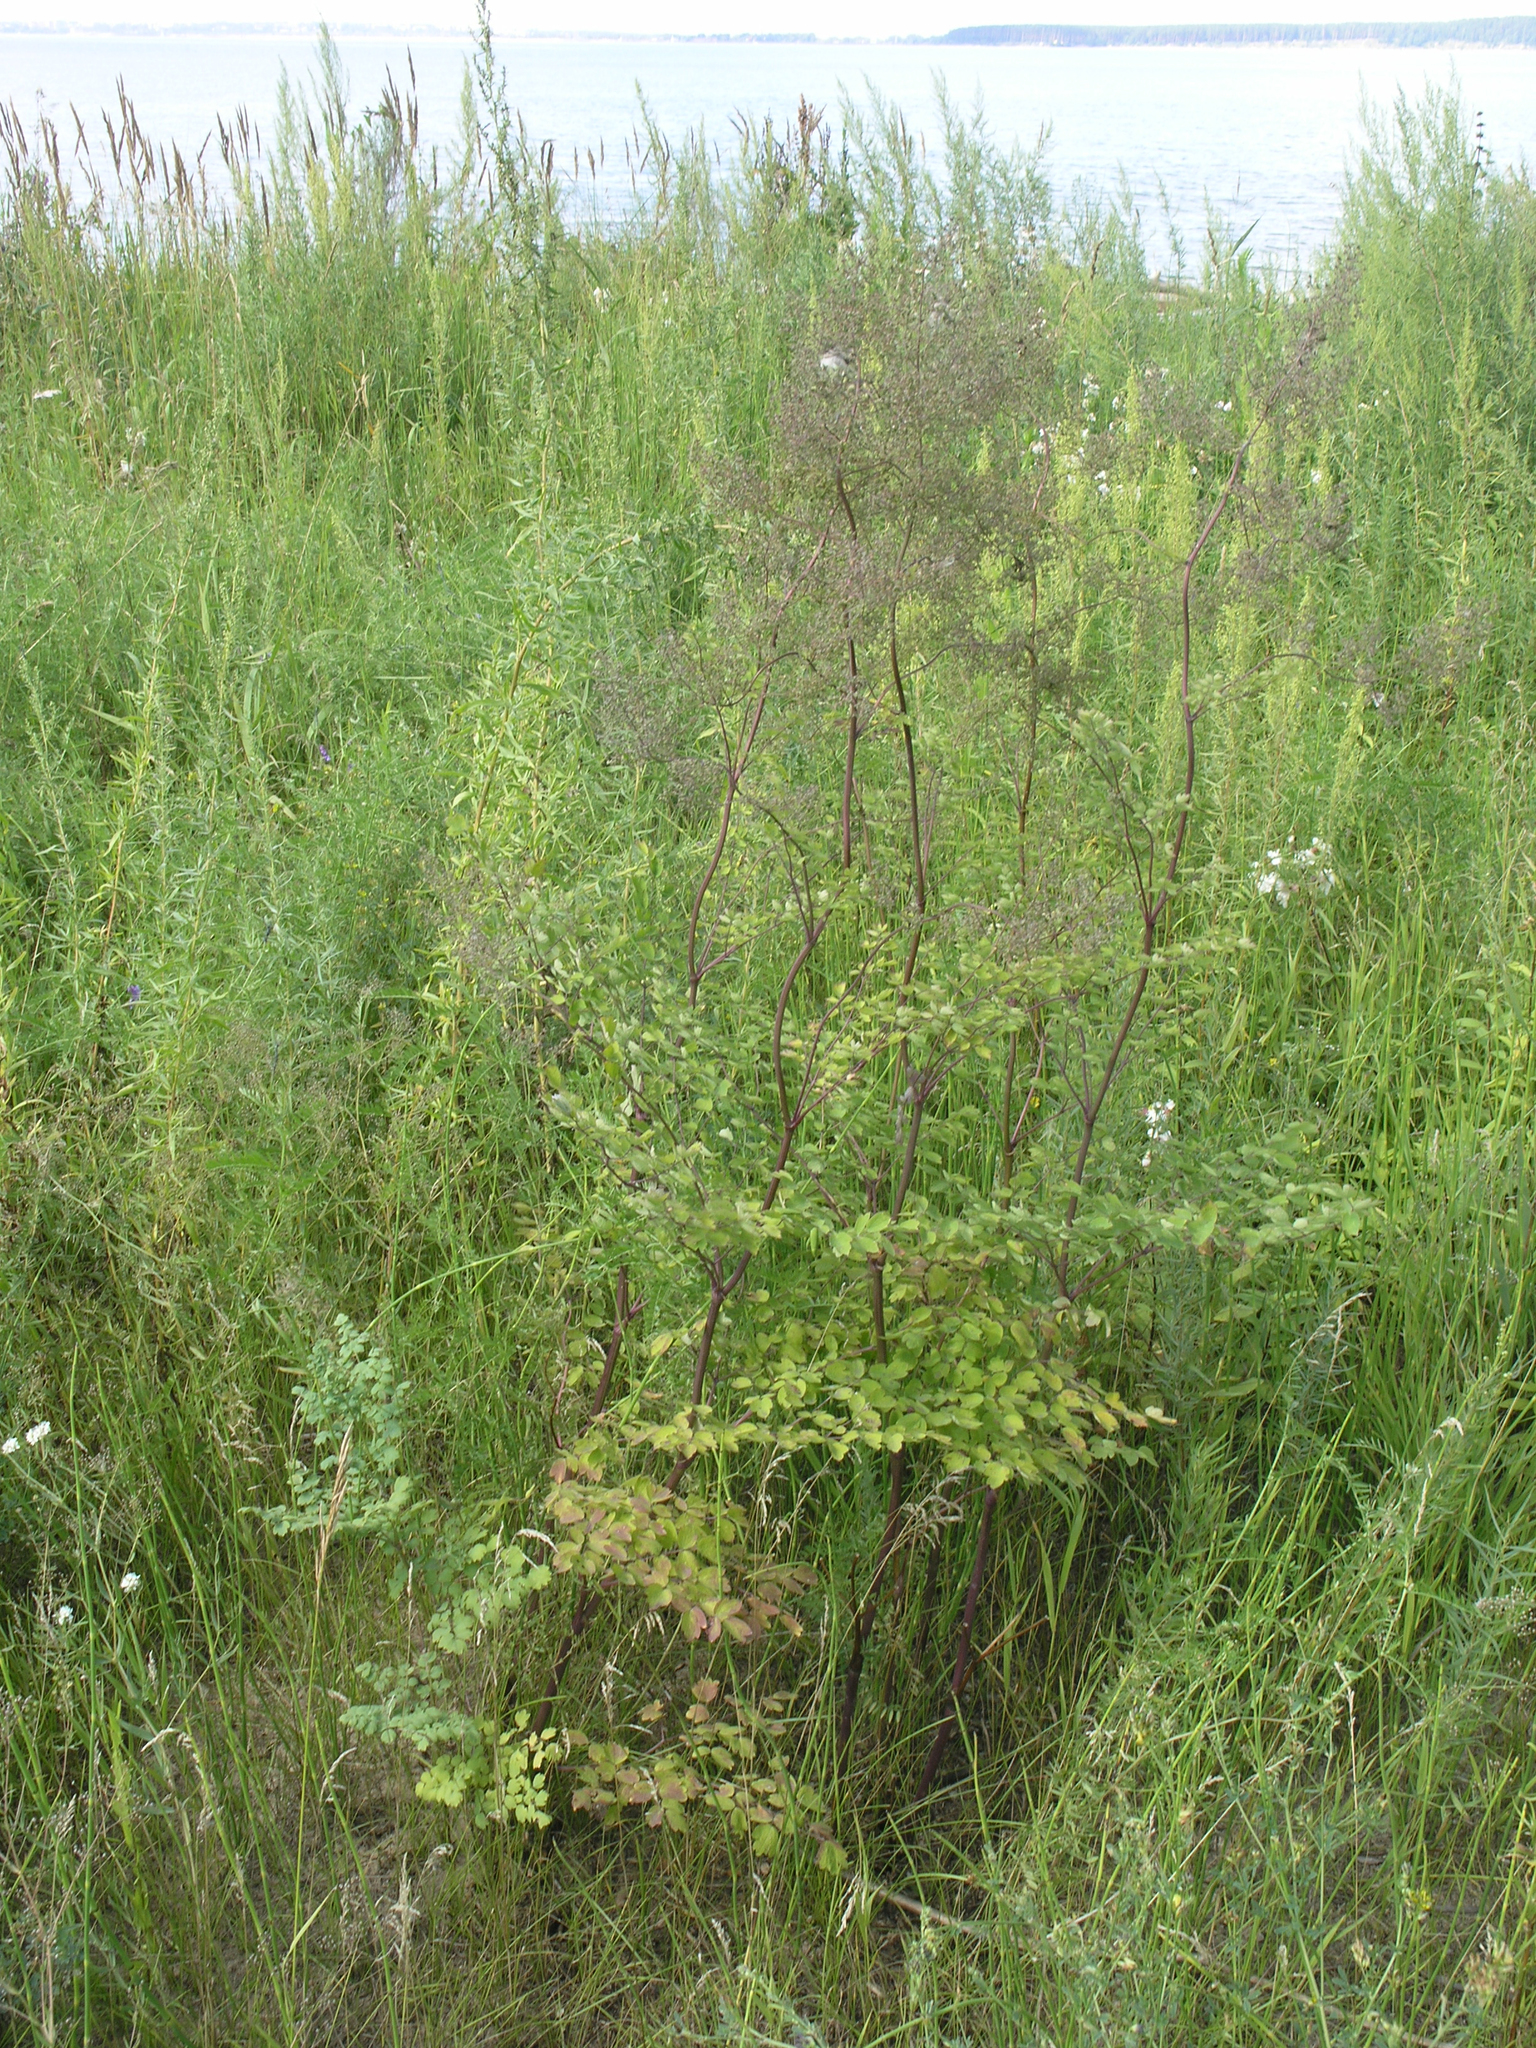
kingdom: Plantae
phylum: Tracheophyta
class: Magnoliopsida
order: Ranunculales
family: Ranunculaceae
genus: Thalictrum
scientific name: Thalictrum minus
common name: Lesser meadow-rue
